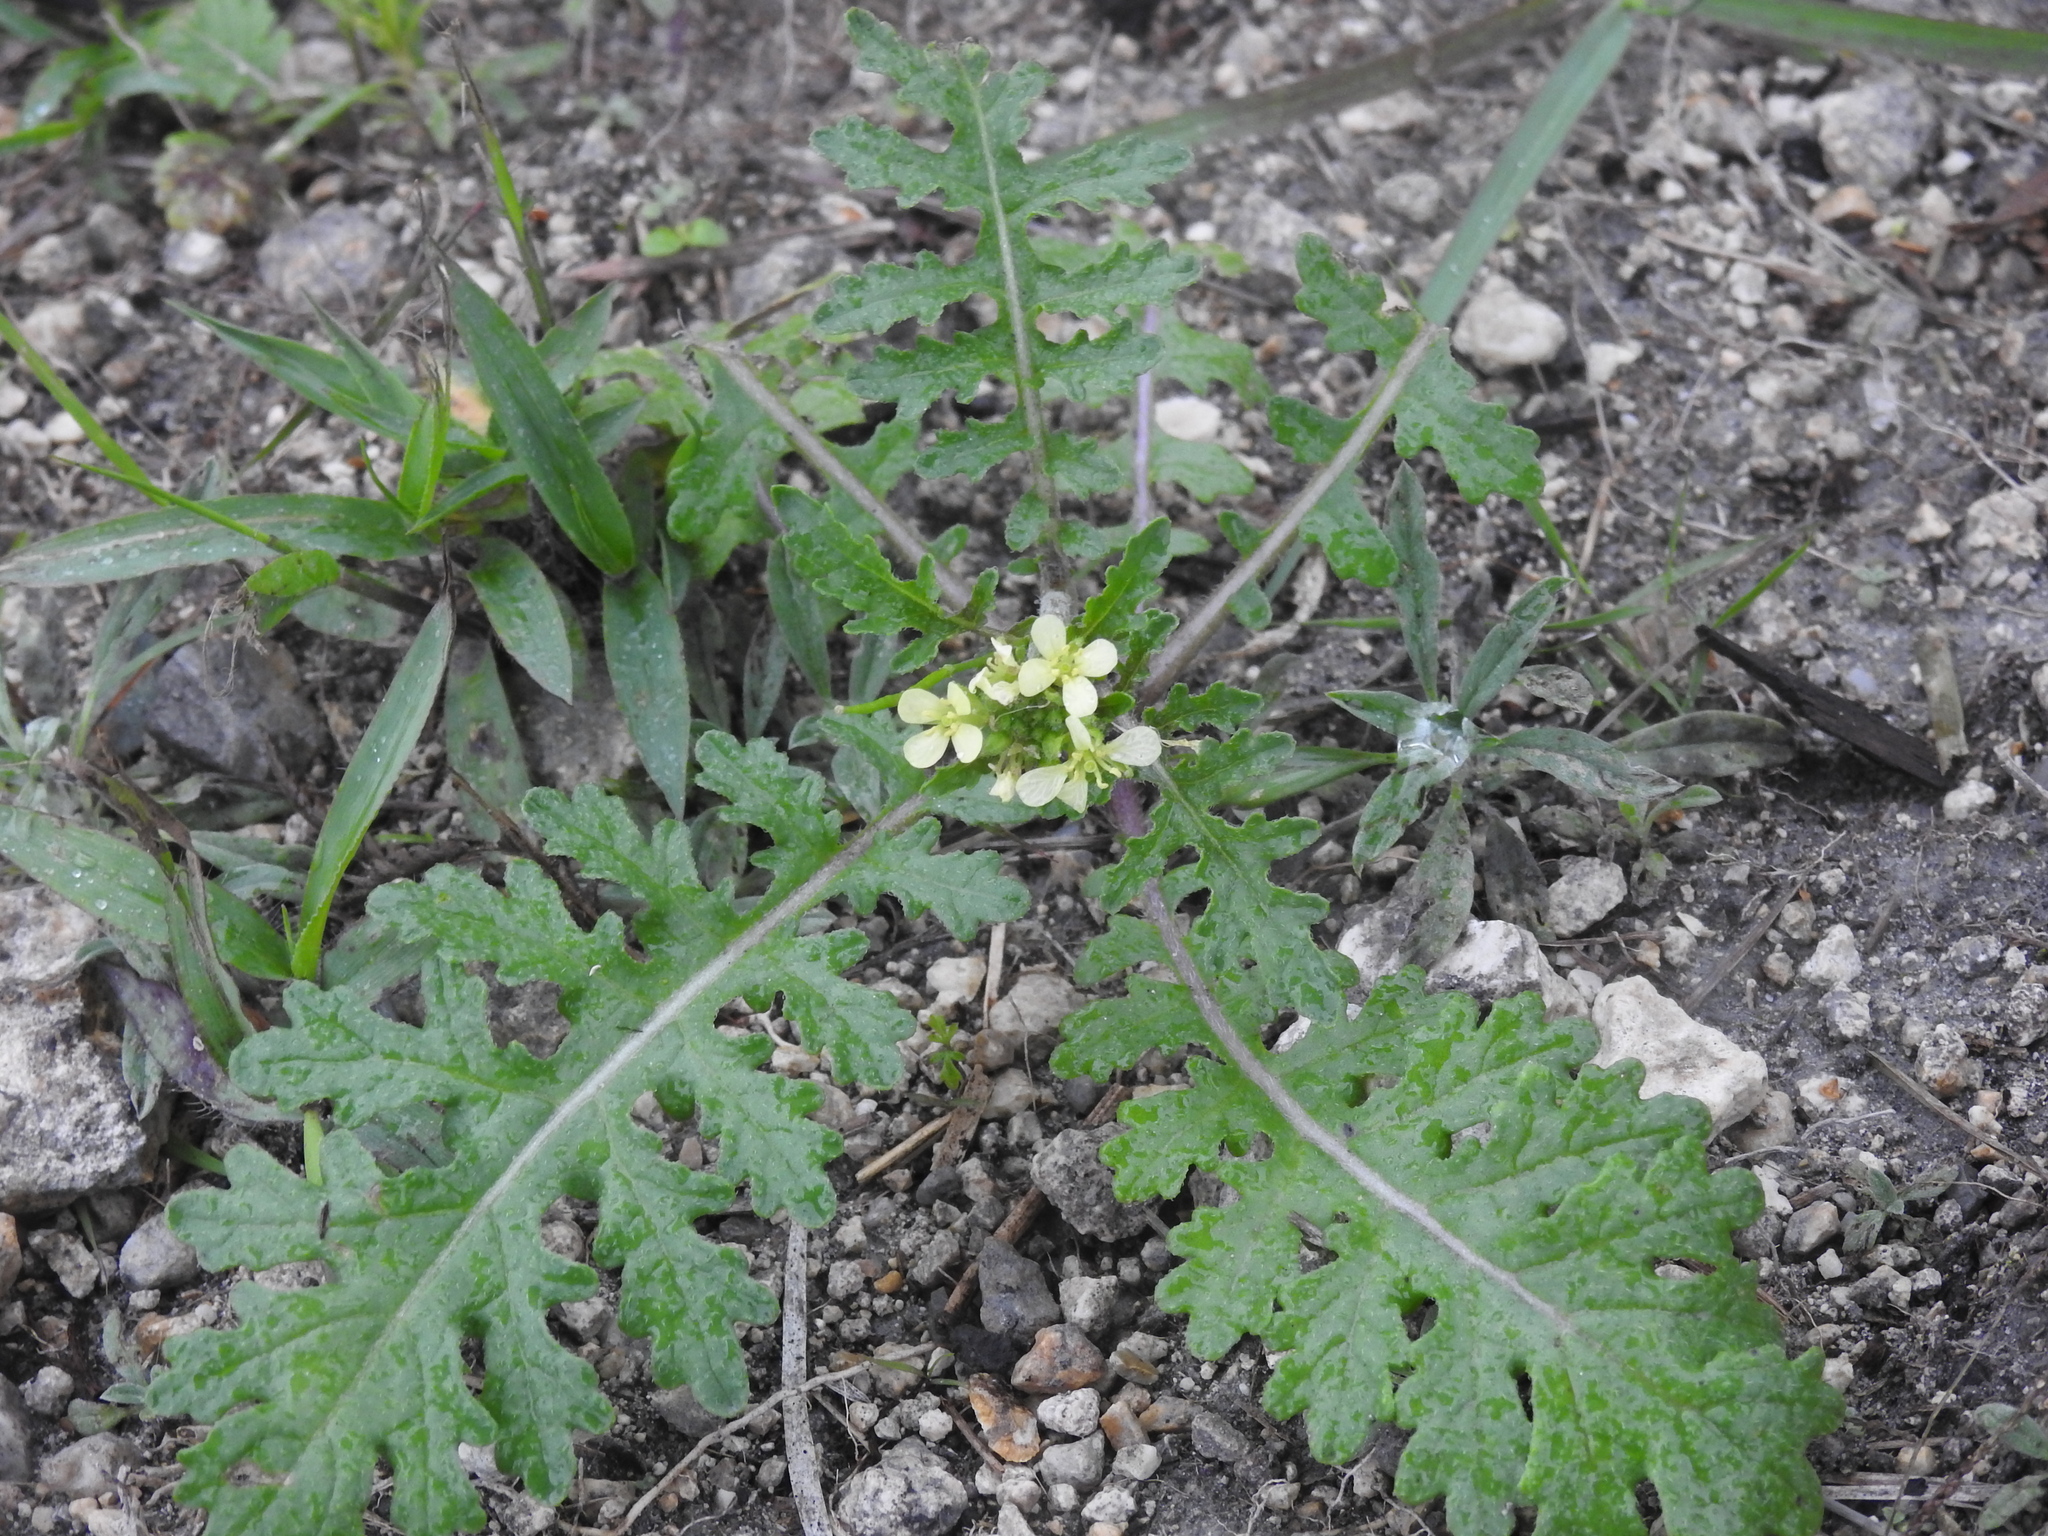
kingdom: Plantae
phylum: Tracheophyta
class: Magnoliopsida
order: Brassicales
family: Brassicaceae
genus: Erucastrum
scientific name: Erucastrum gallicum
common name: Hairy rocket
